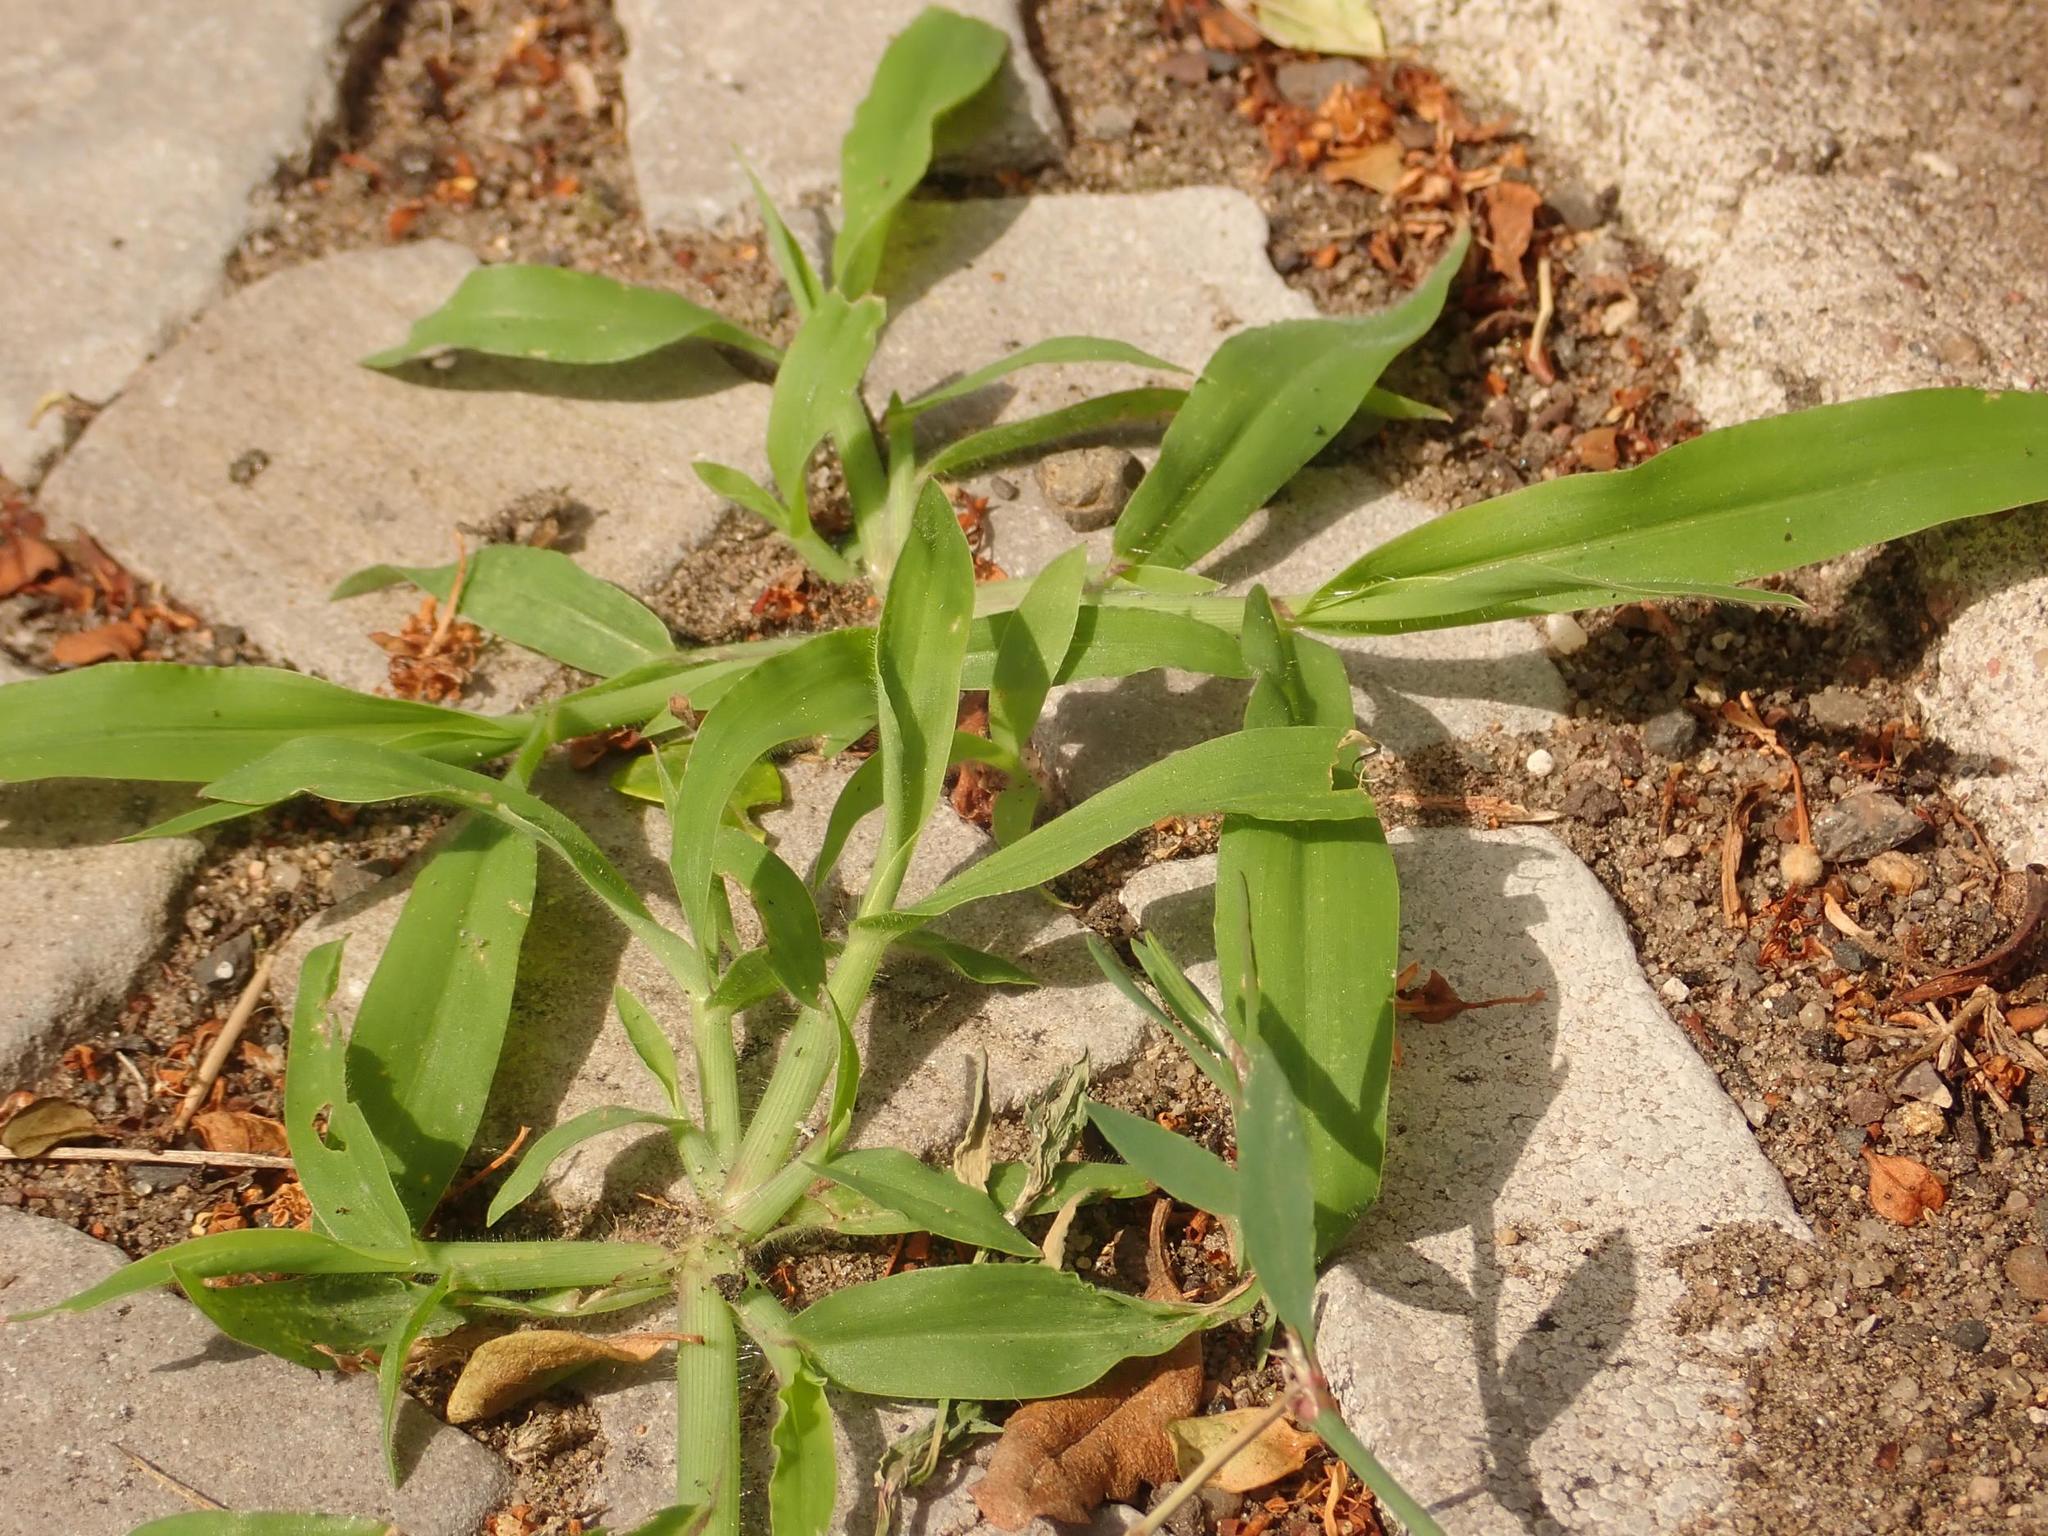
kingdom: Plantae
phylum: Tracheophyta
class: Liliopsida
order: Poales
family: Poaceae
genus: Digitaria
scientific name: Digitaria sanguinalis
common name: Hairy crabgrass
